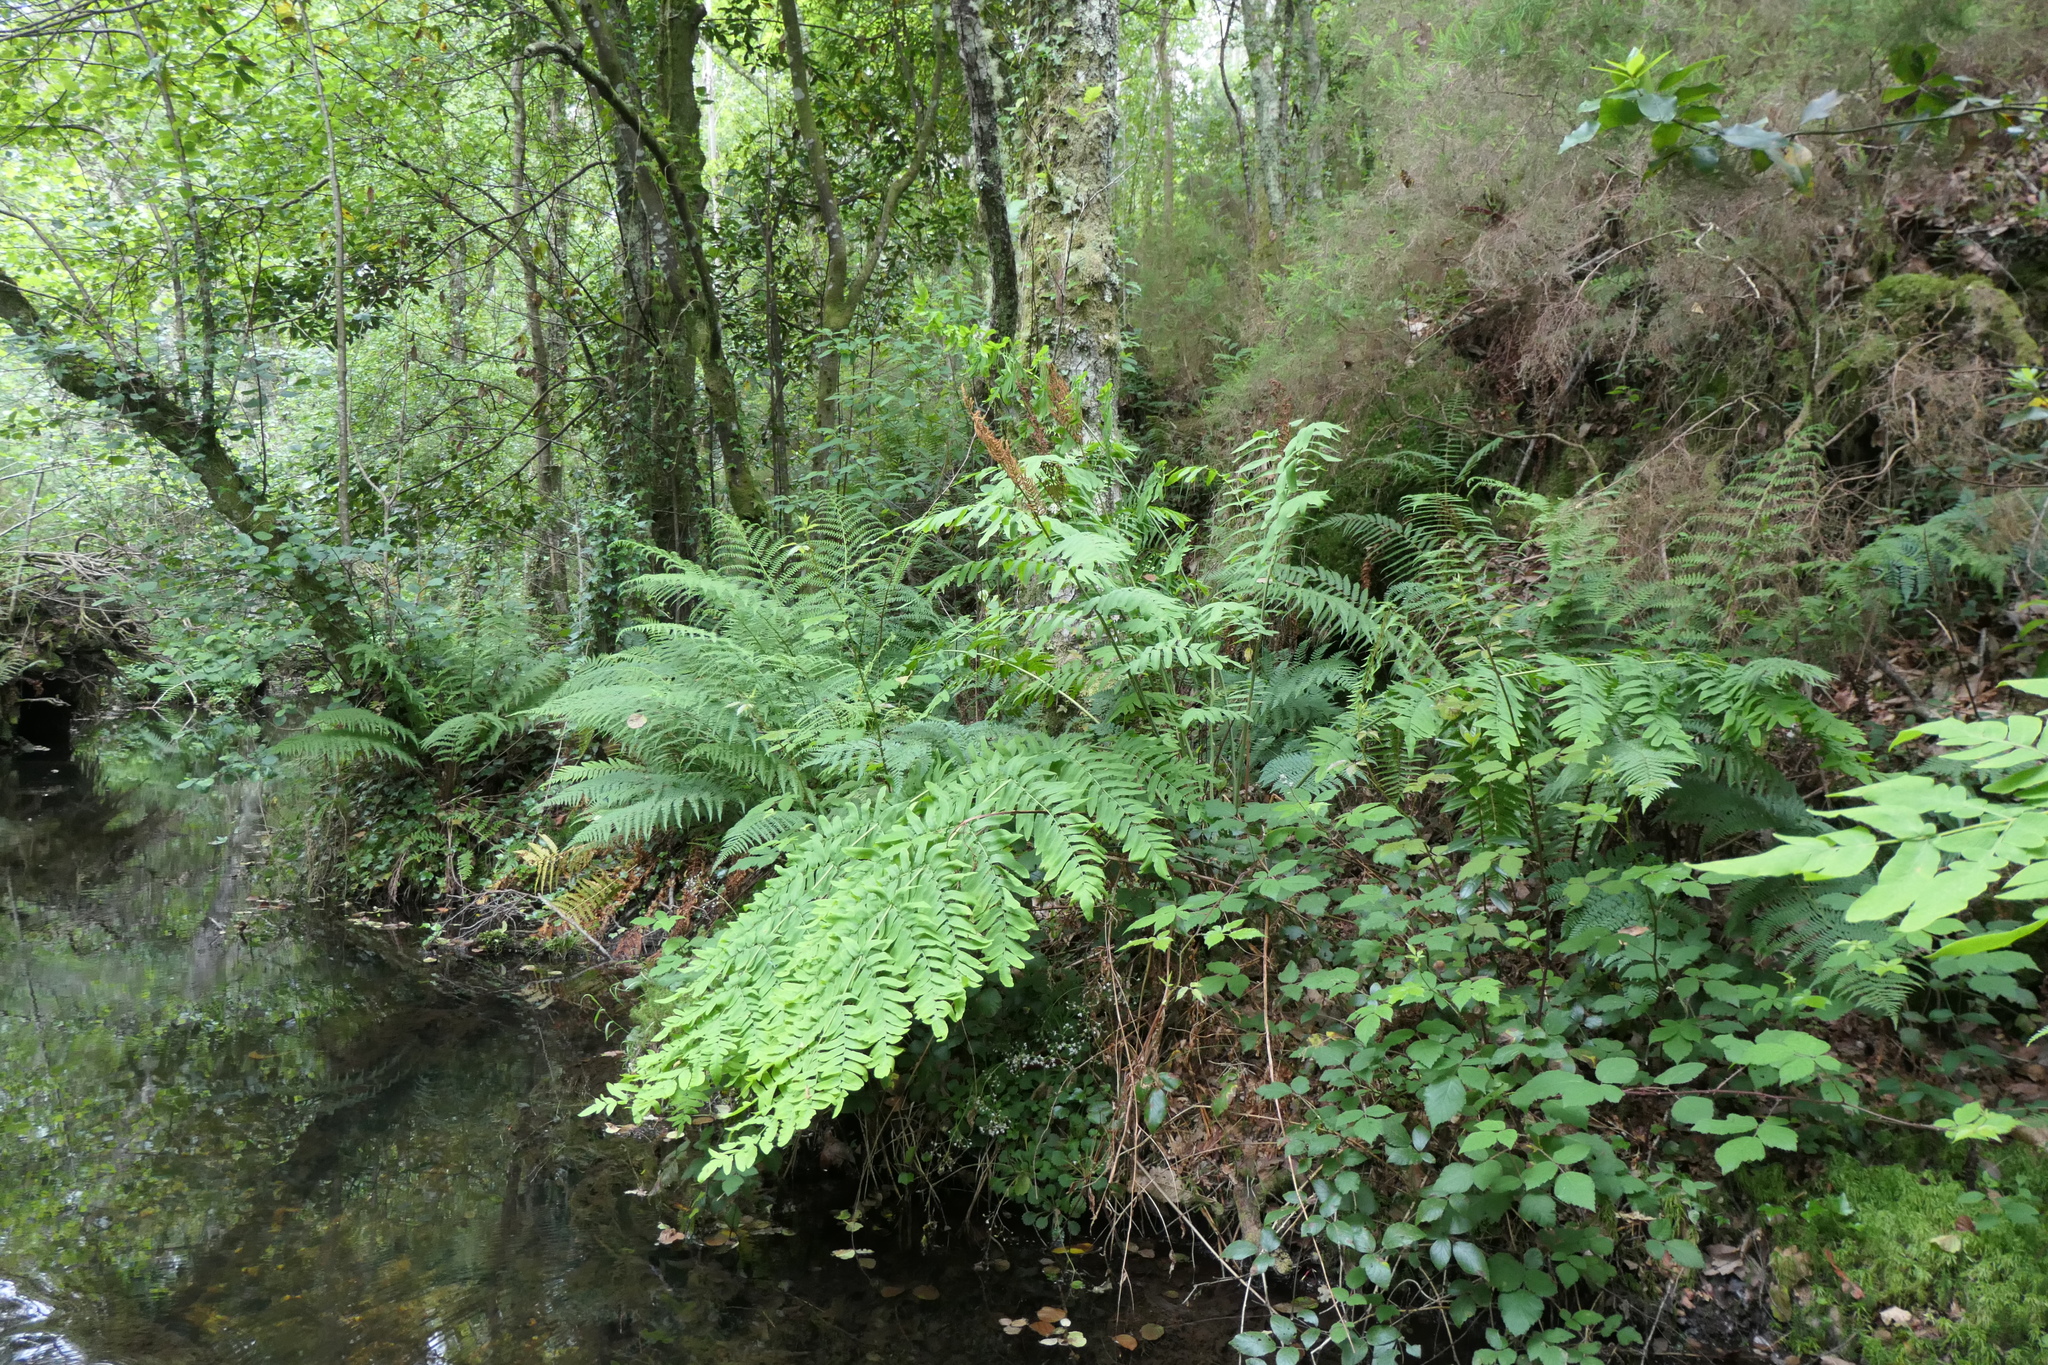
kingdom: Plantae
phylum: Tracheophyta
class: Polypodiopsida
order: Osmundales
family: Osmundaceae
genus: Osmunda
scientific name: Osmunda regalis
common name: Royal fern
